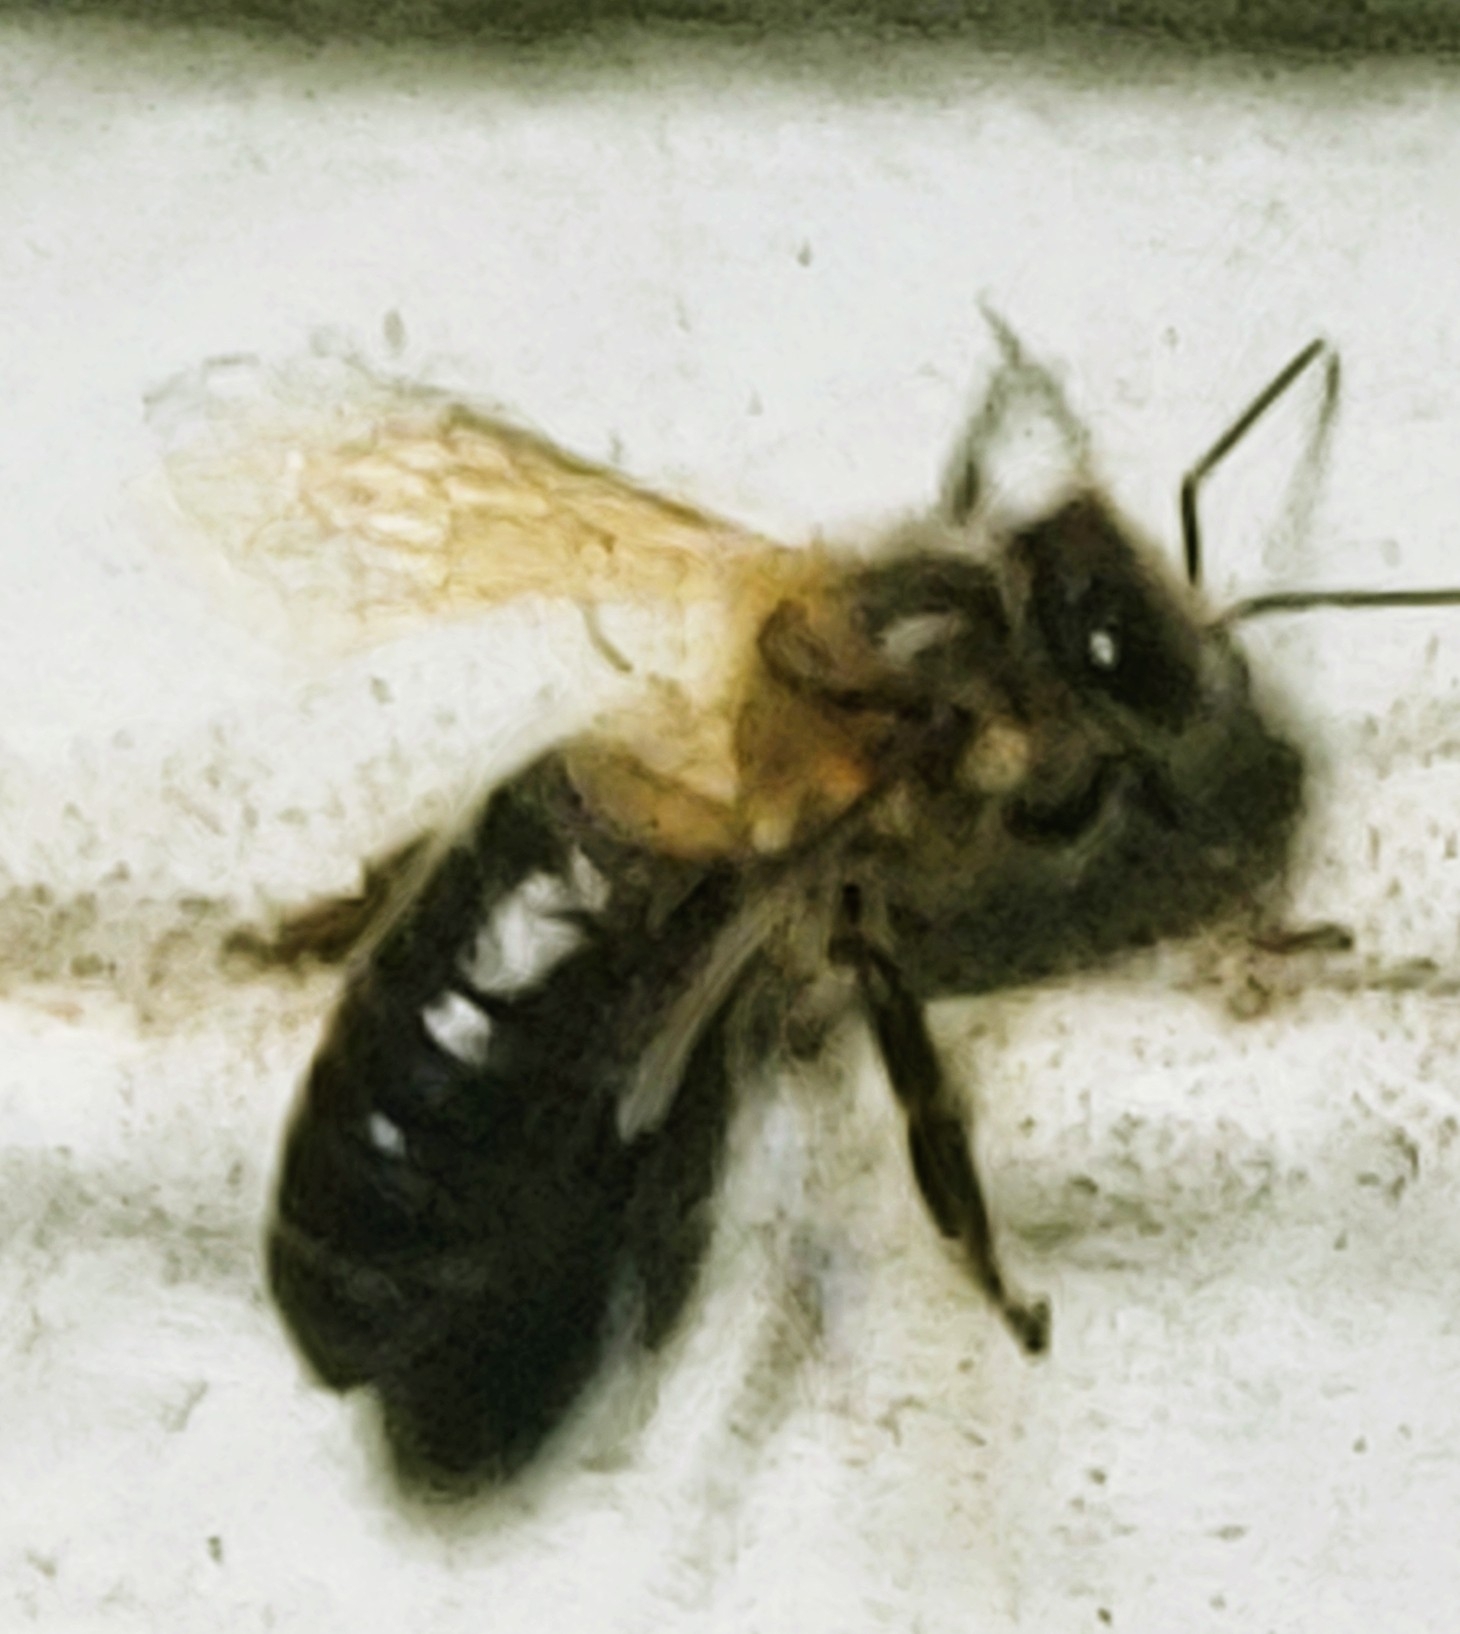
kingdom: Animalia
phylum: Arthropoda
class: Insecta
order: Hymenoptera
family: Apidae
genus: Apis
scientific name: Apis mellifera
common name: Honey bee
